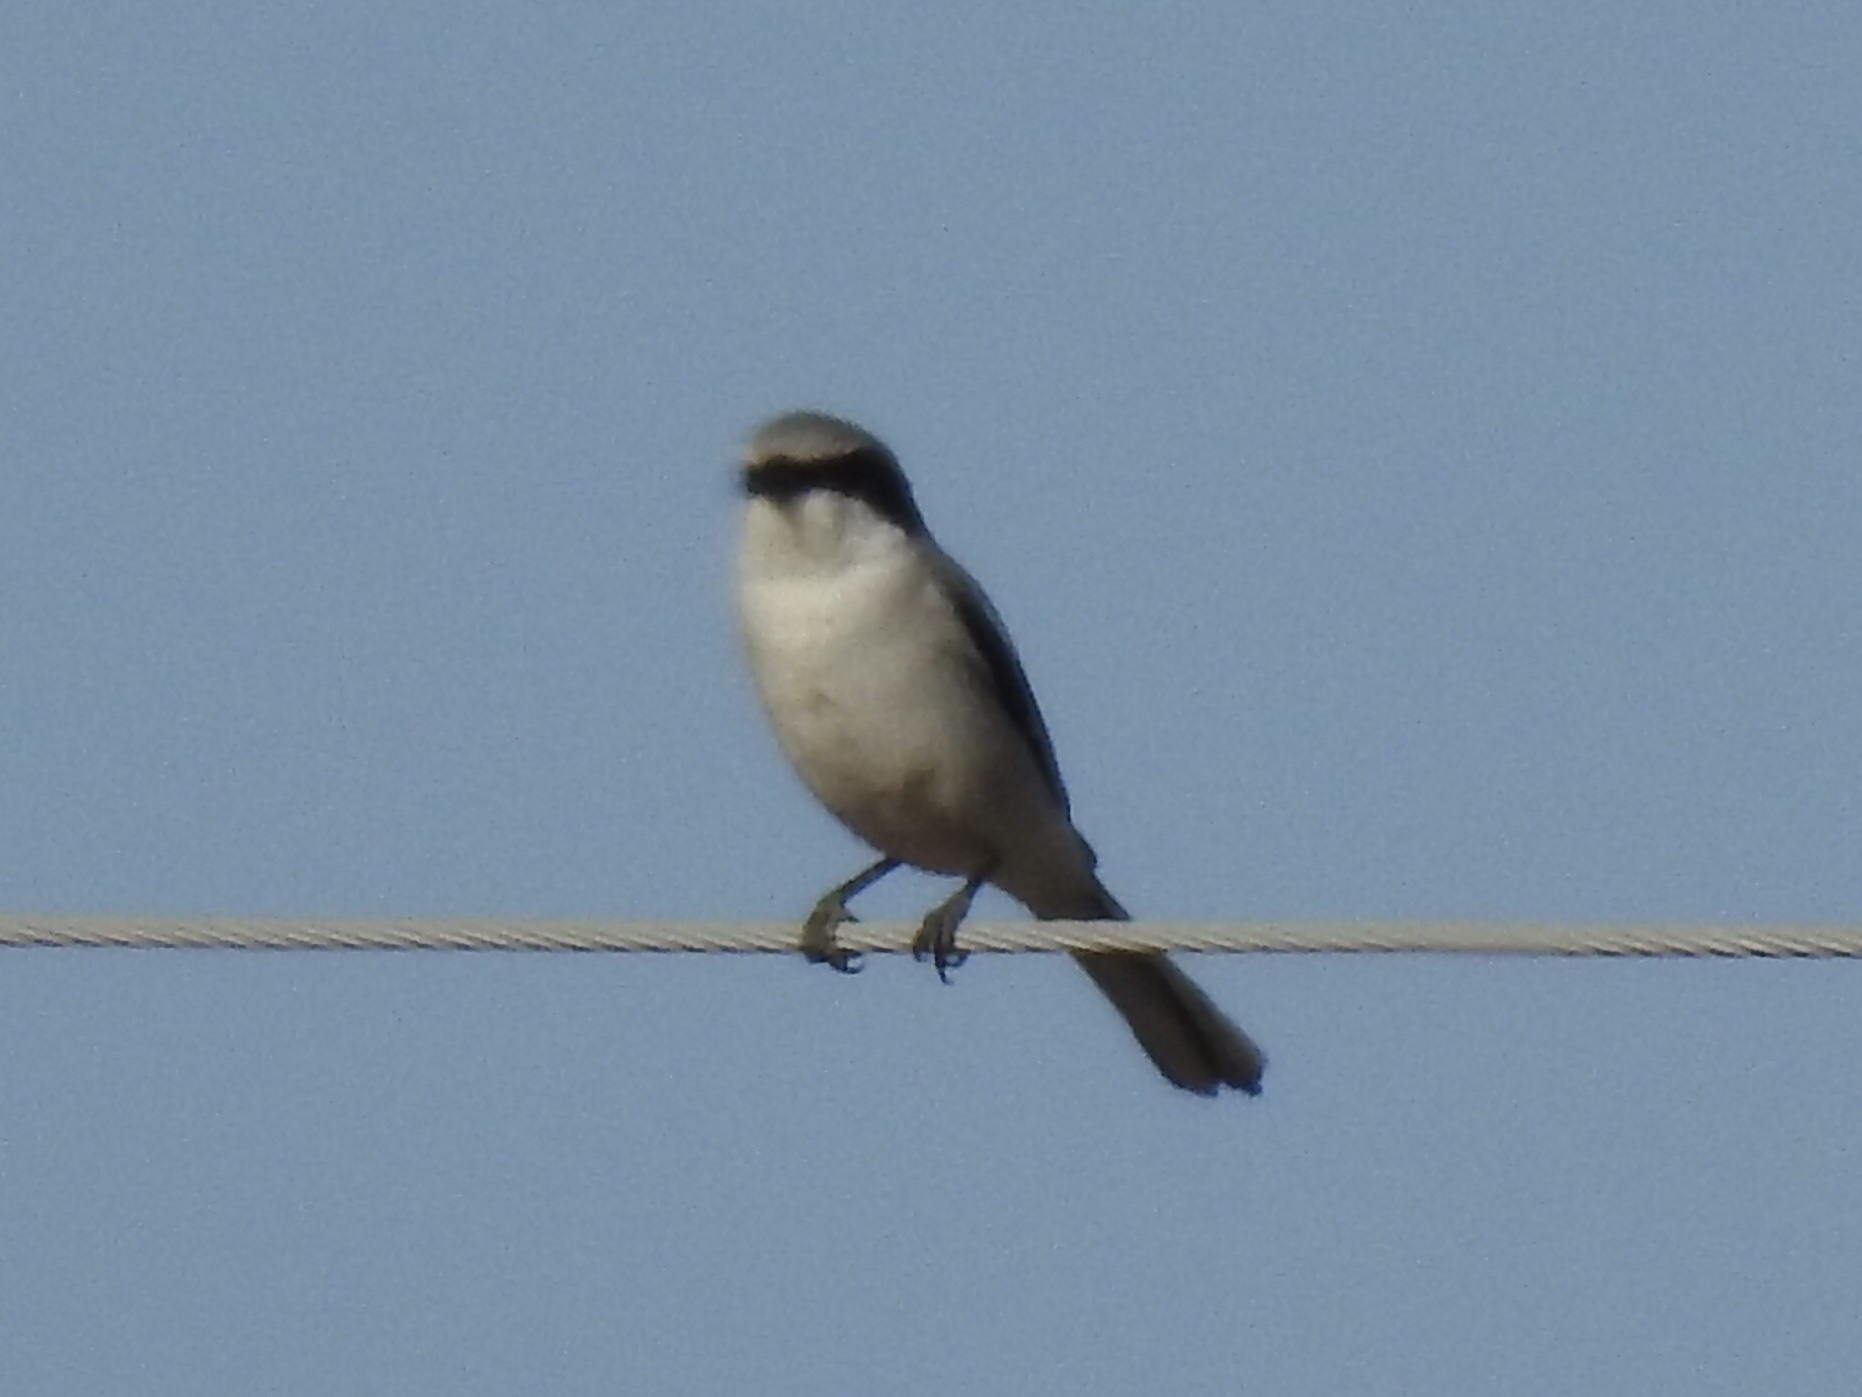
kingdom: Animalia
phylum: Chordata
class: Aves
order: Passeriformes
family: Laniidae
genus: Lanius
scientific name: Lanius ludovicianus
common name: Loggerhead shrike
